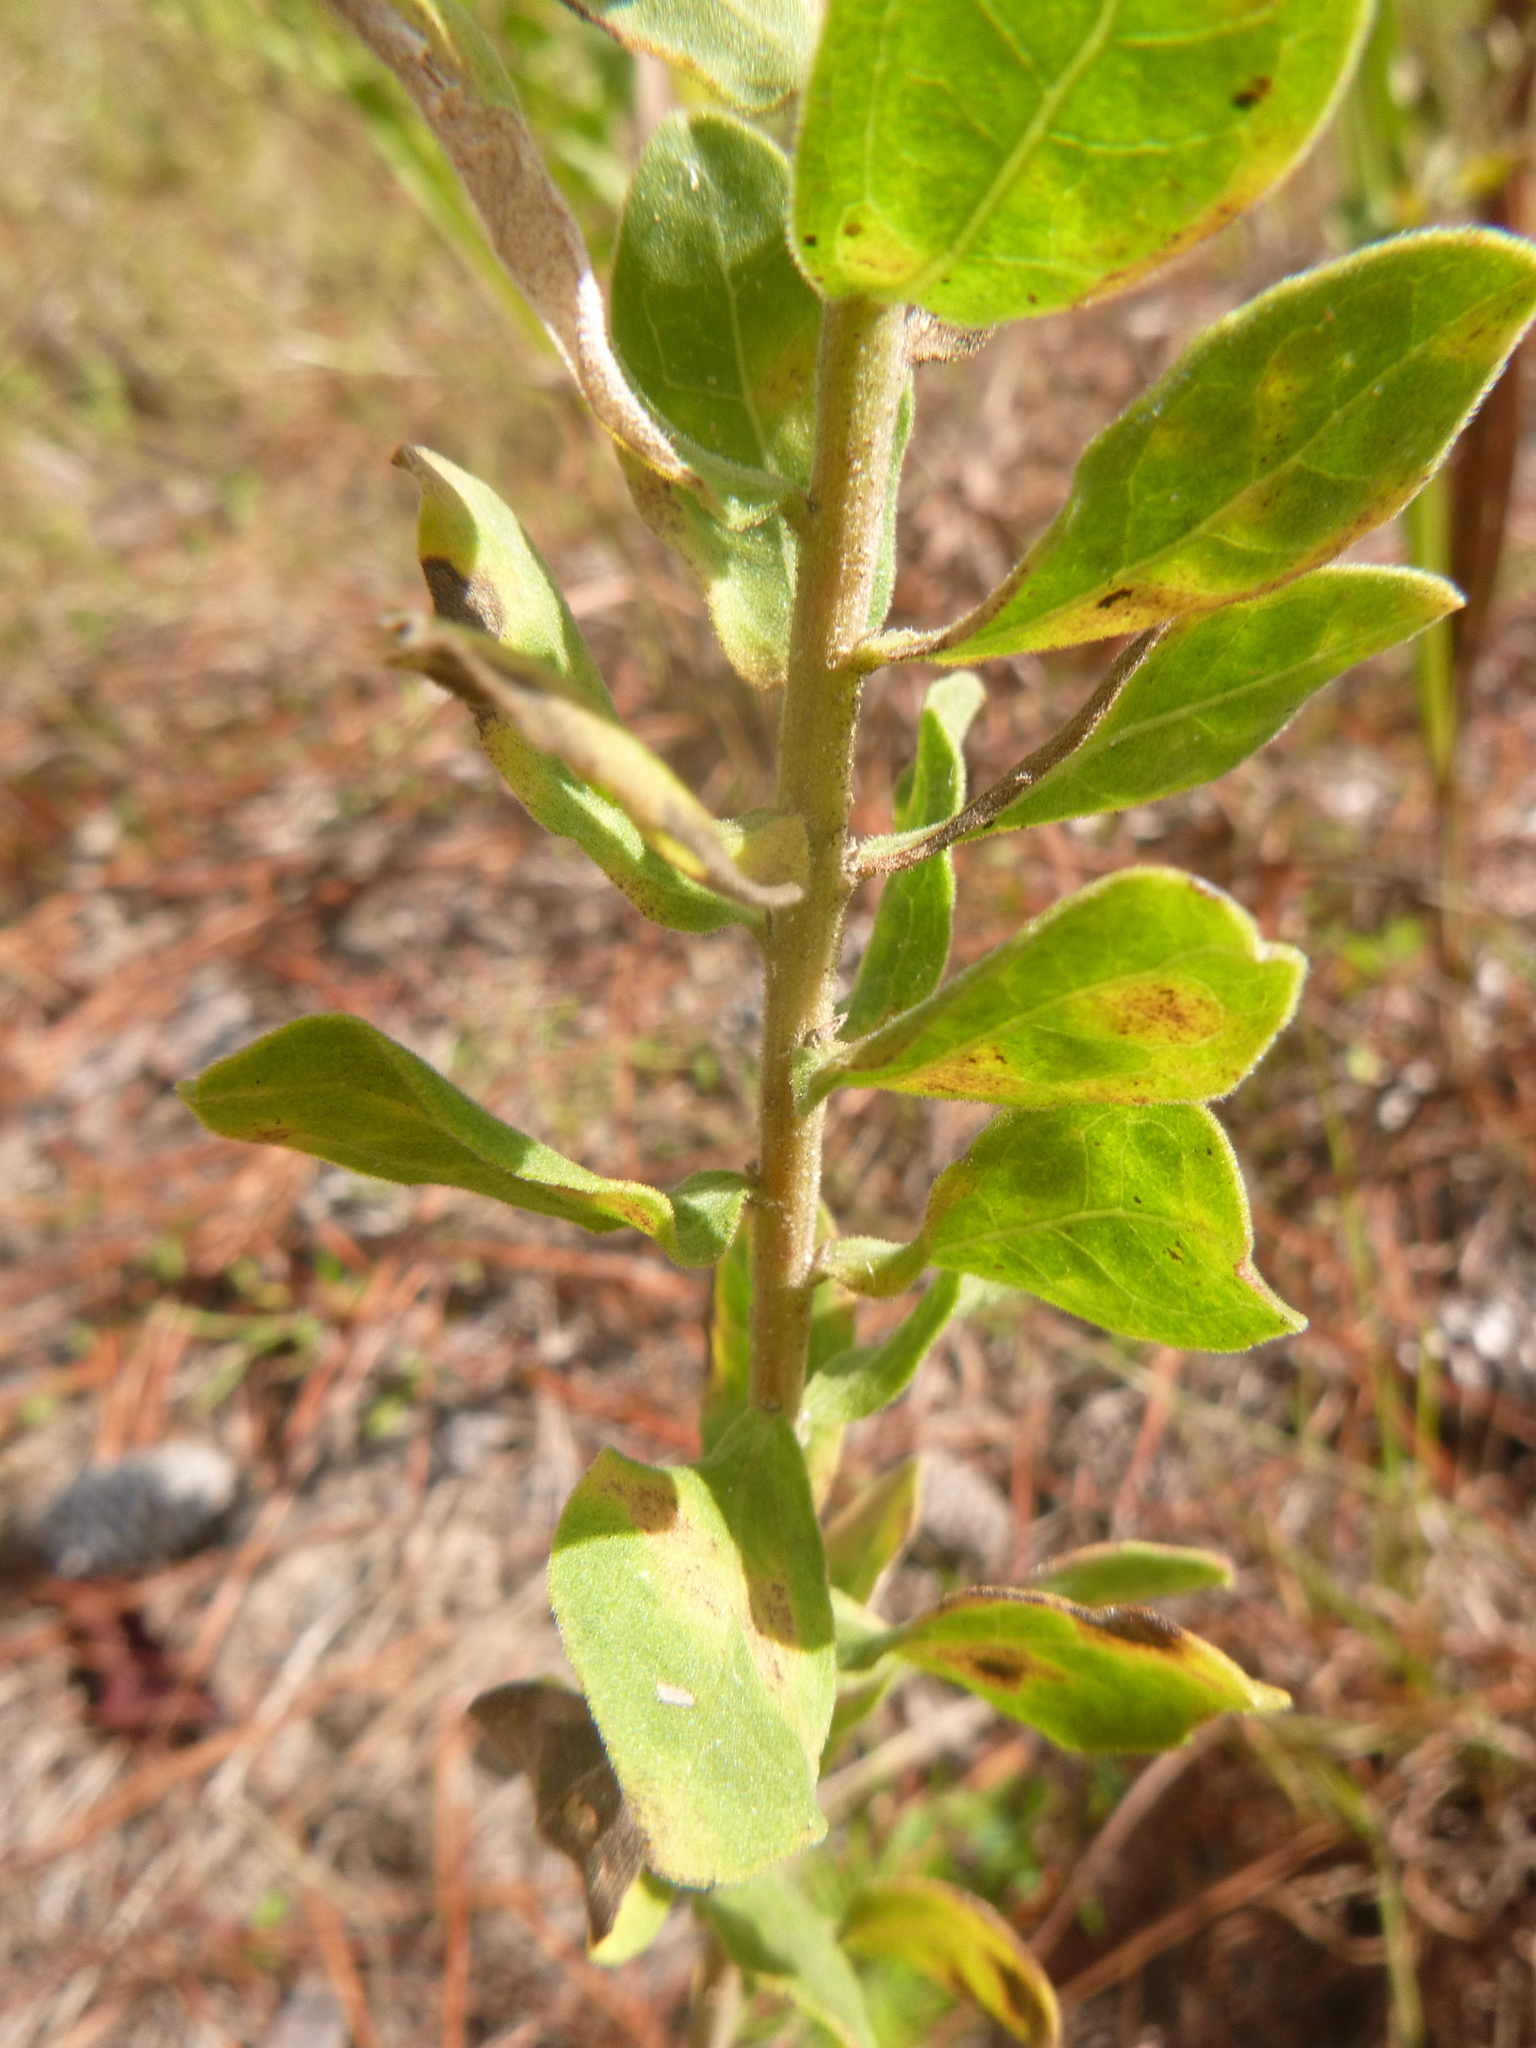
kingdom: Plantae
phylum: Tracheophyta
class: Magnoliopsida
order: Asterales
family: Asteraceae
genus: Sericocarpus
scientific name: Sericocarpus tortifolius
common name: Dixie aster
